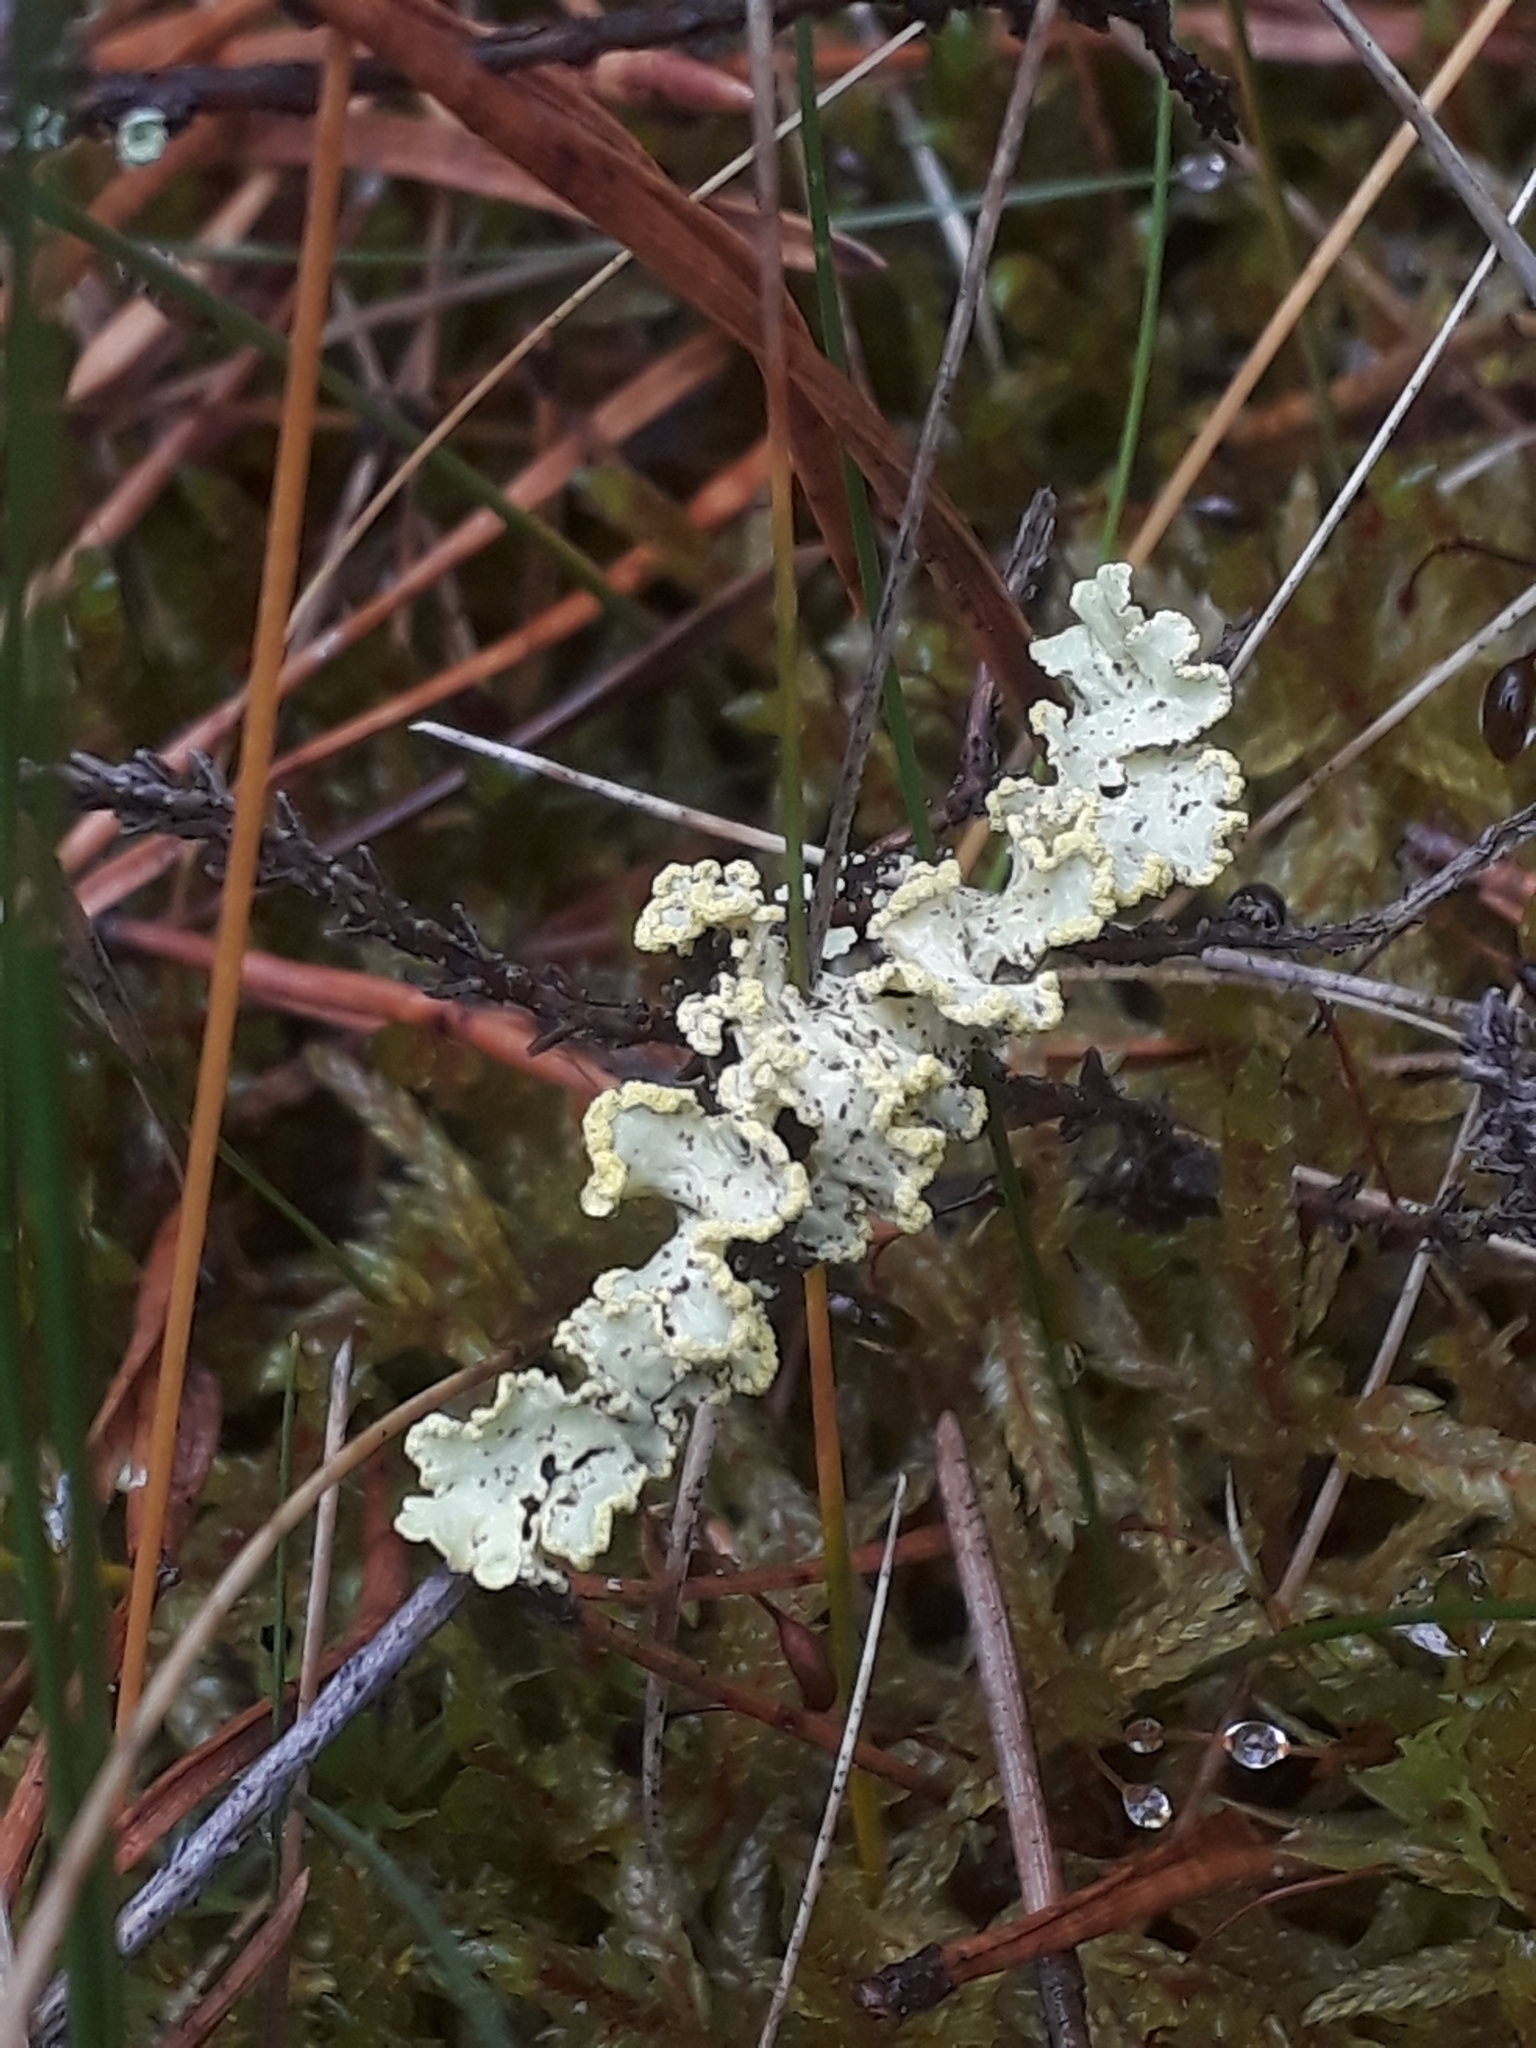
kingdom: Fungi
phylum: Ascomycota
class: Lecanoromycetes
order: Lecanorales
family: Parmeliaceae
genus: Vulpicida
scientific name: Vulpicida pinastri
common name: Powdered sunshine lichen
